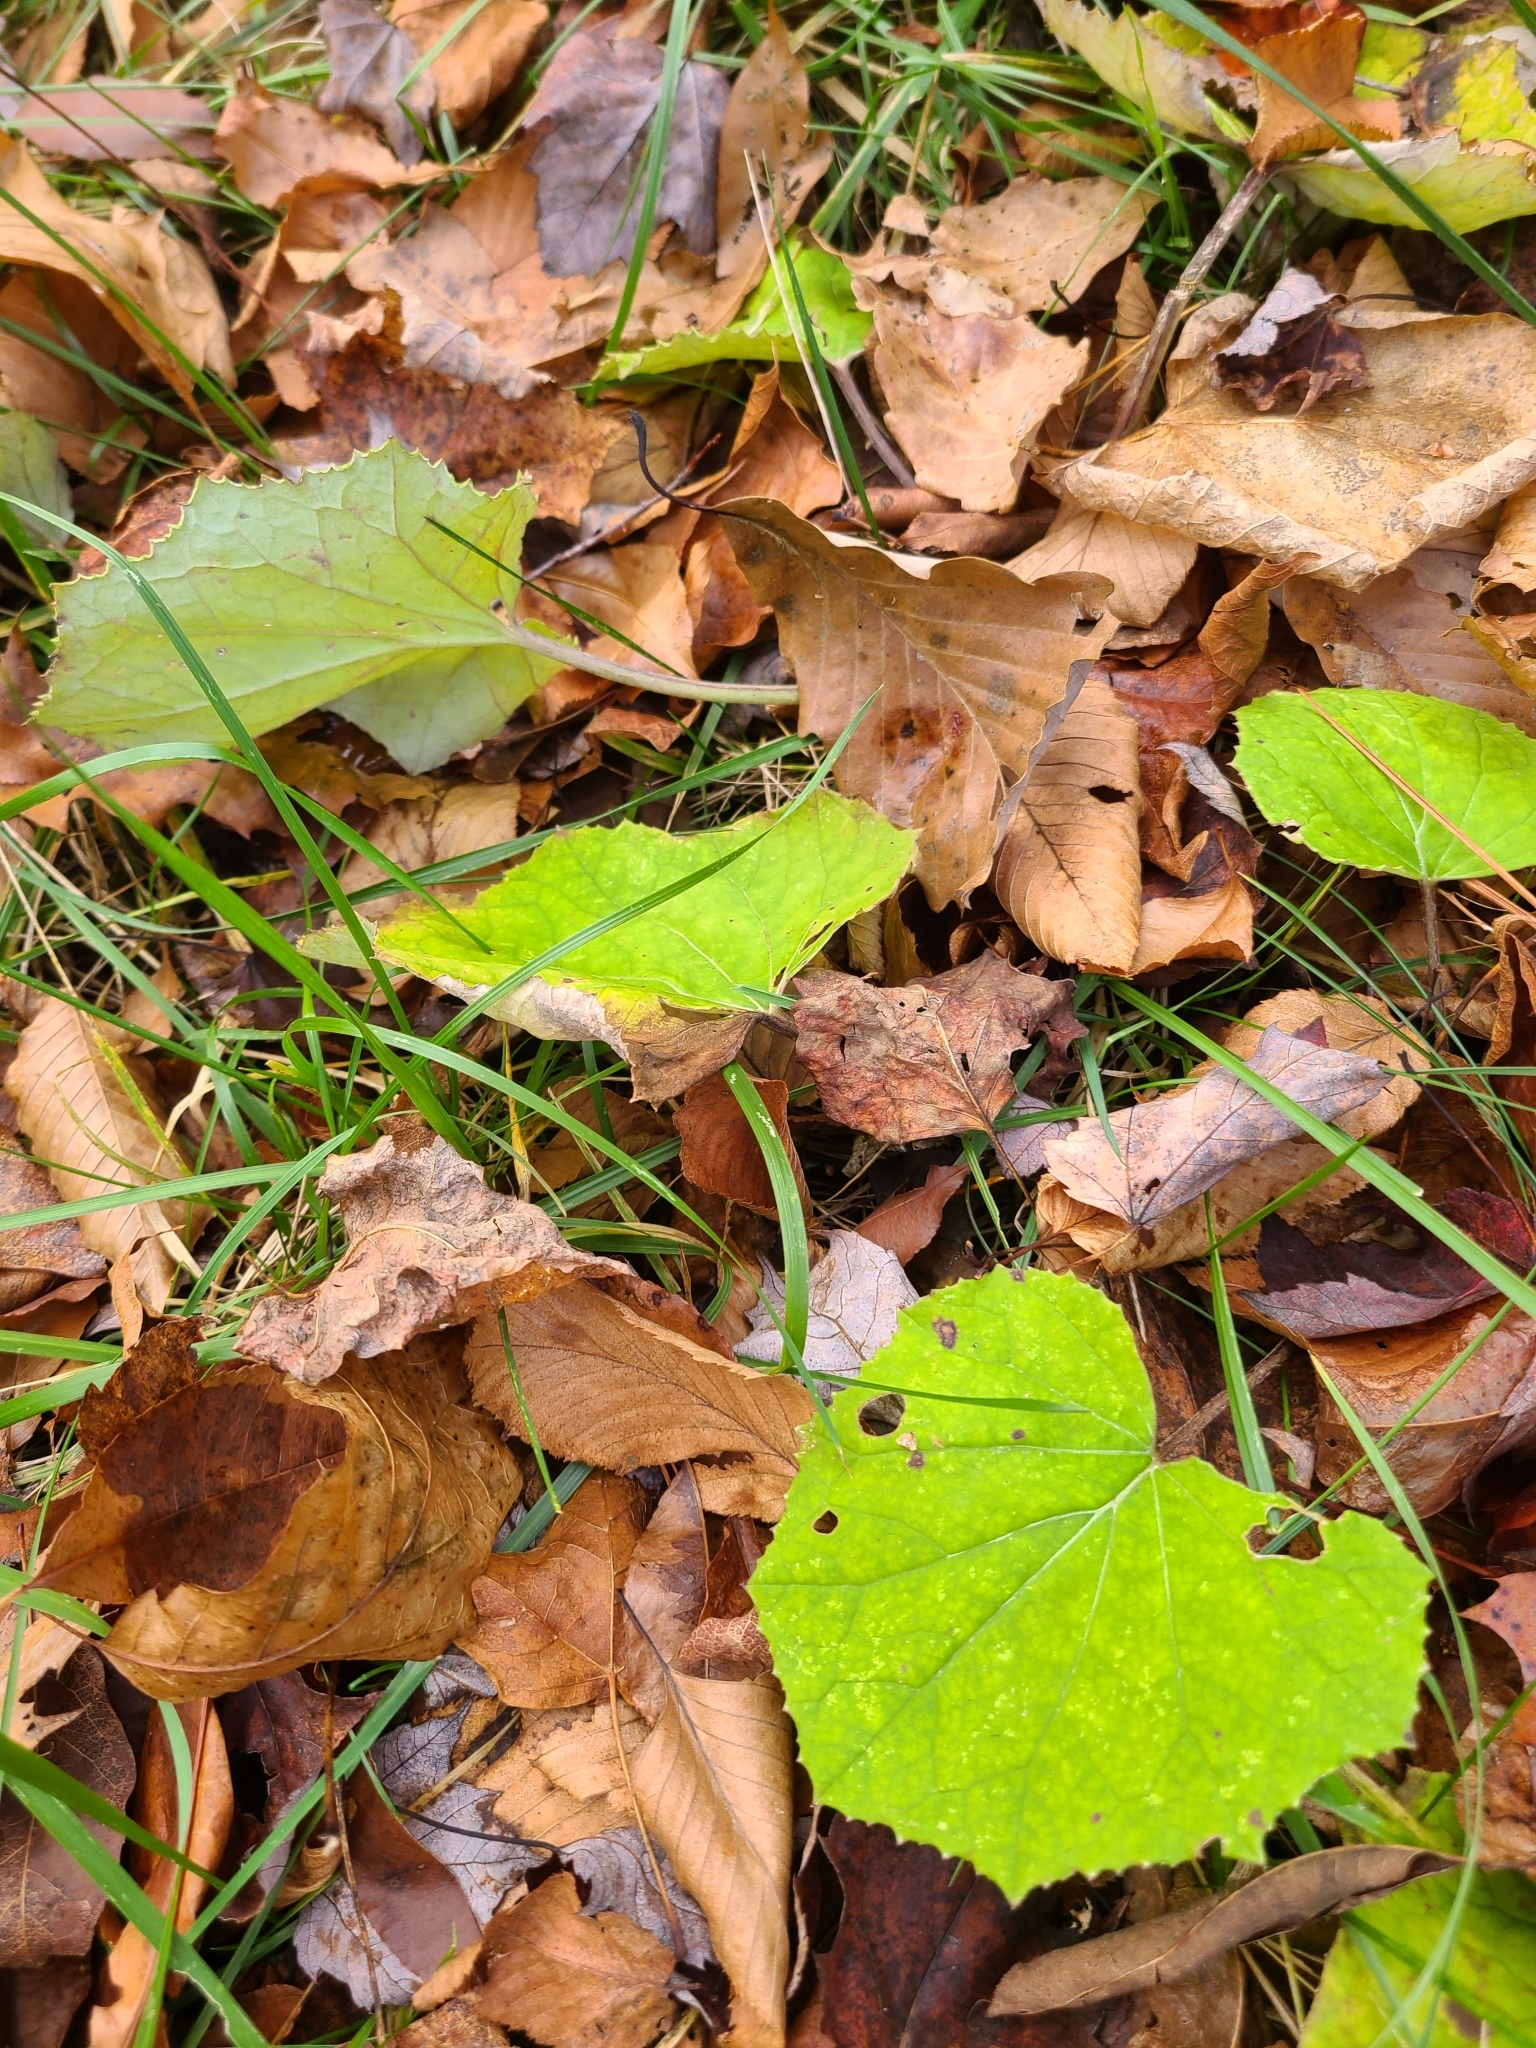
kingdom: Plantae
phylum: Tracheophyta
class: Magnoliopsida
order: Asterales
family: Asteraceae
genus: Tussilago
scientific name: Tussilago farfara
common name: Coltsfoot
